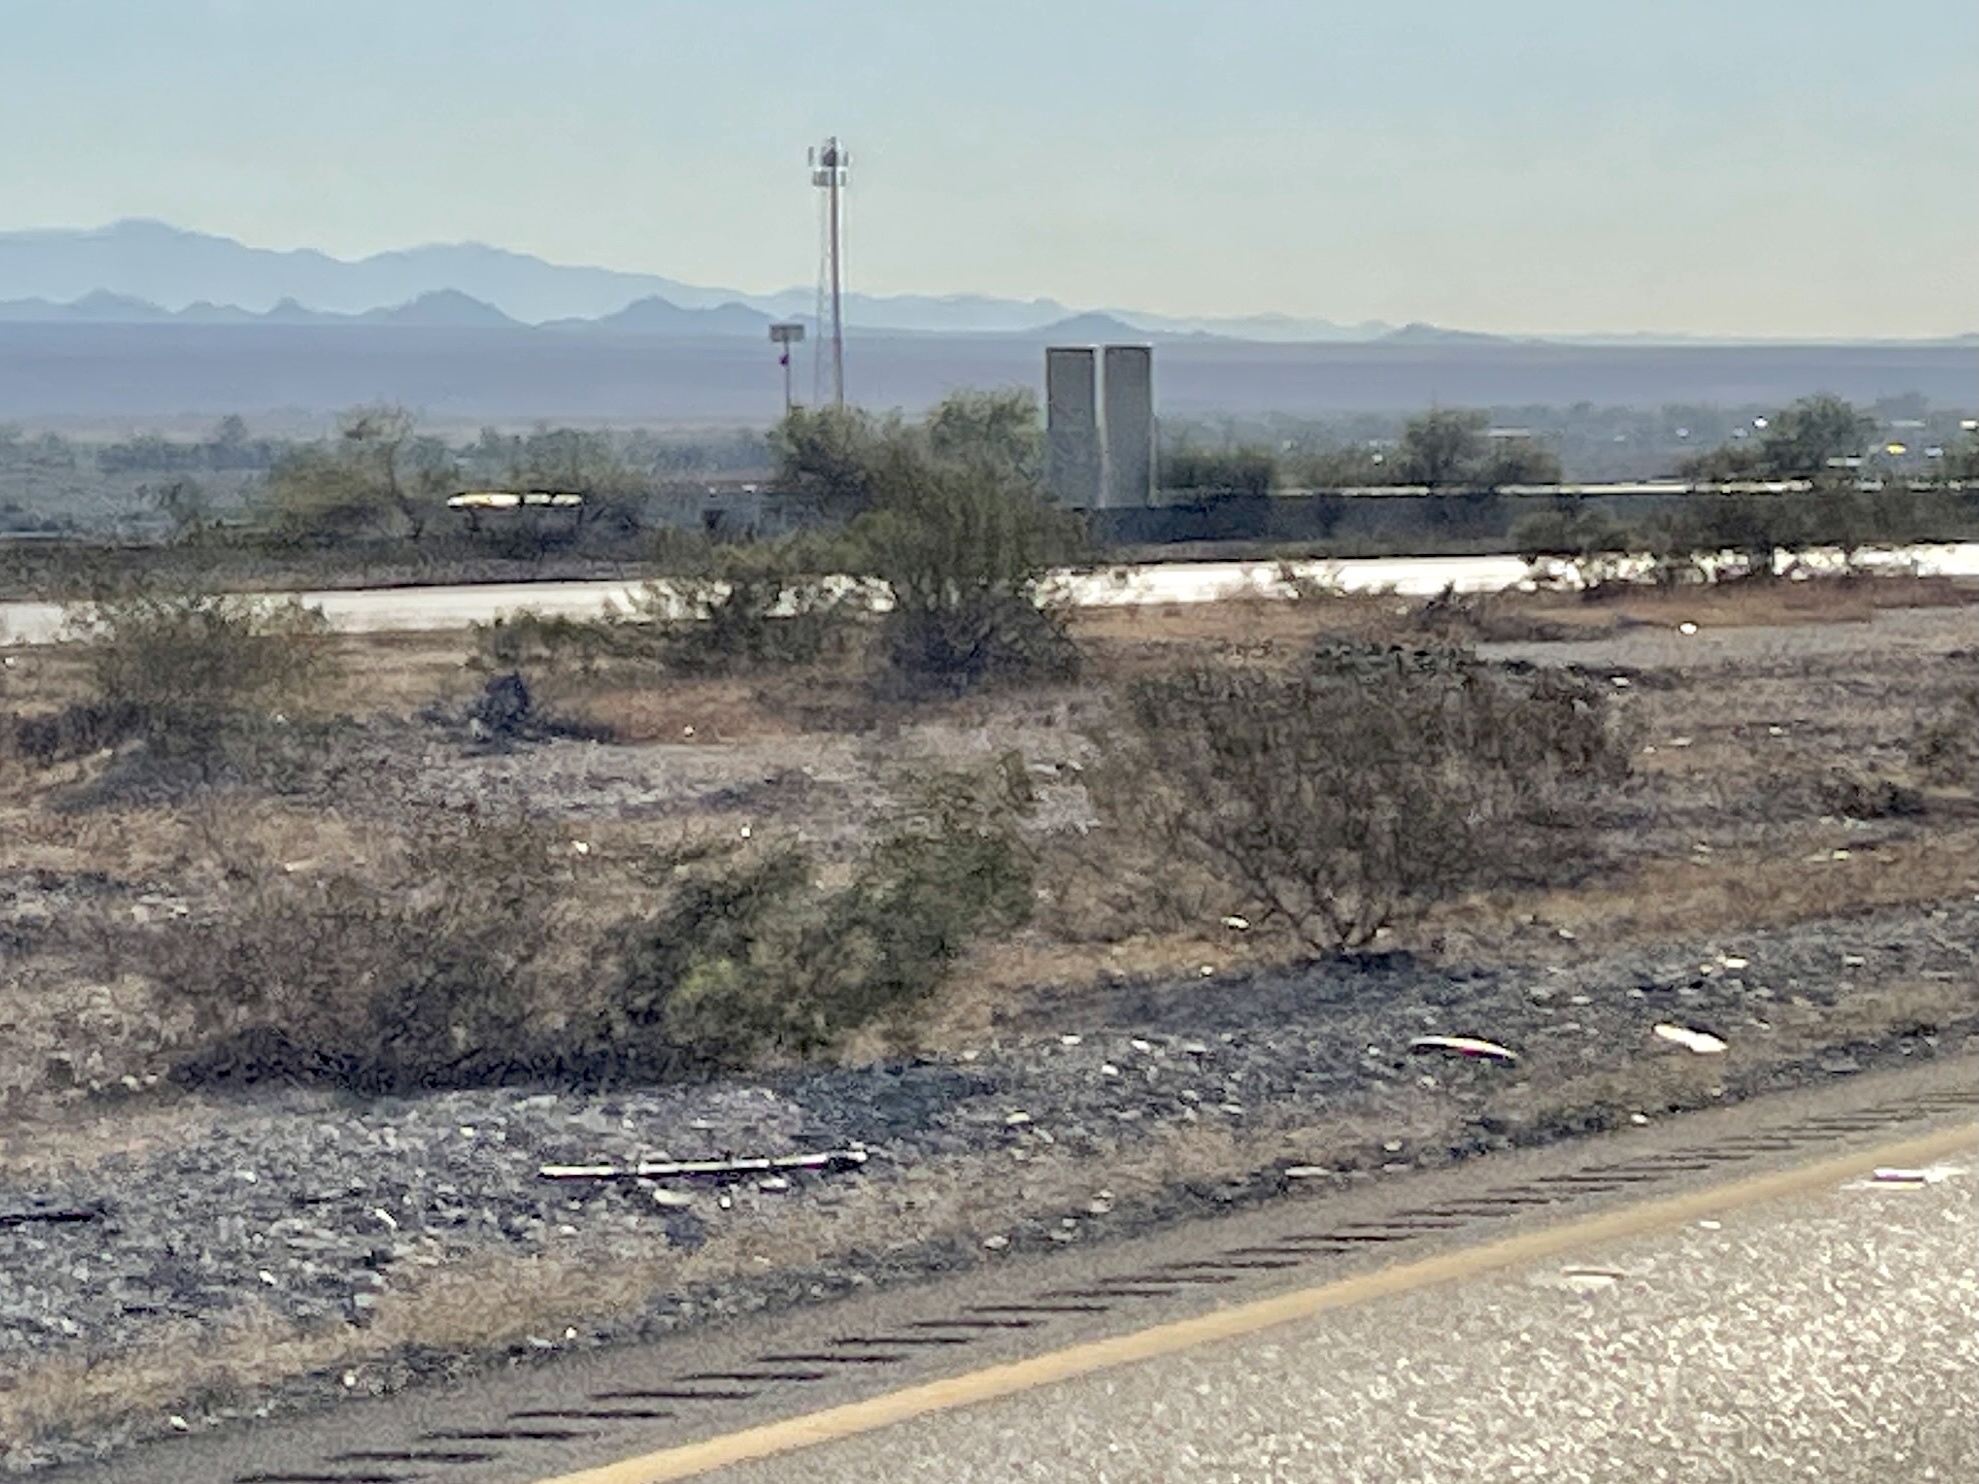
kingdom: Plantae
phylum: Tracheophyta
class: Magnoliopsida
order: Zygophyllales
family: Zygophyllaceae
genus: Larrea
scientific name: Larrea tridentata
